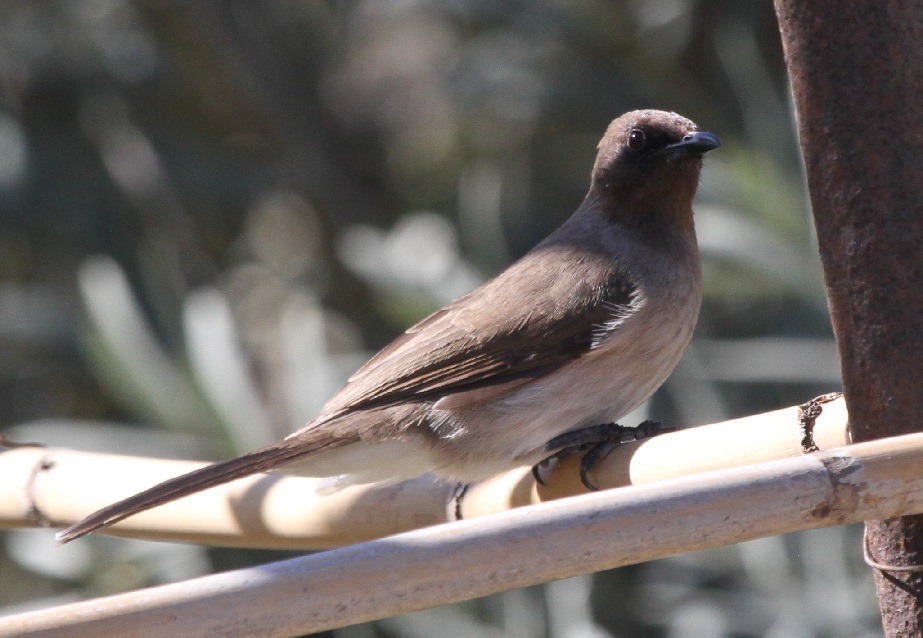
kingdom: Animalia
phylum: Chordata
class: Aves
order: Passeriformes
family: Pycnonotidae
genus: Pycnonotus
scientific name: Pycnonotus barbatus
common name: Common bulbul
